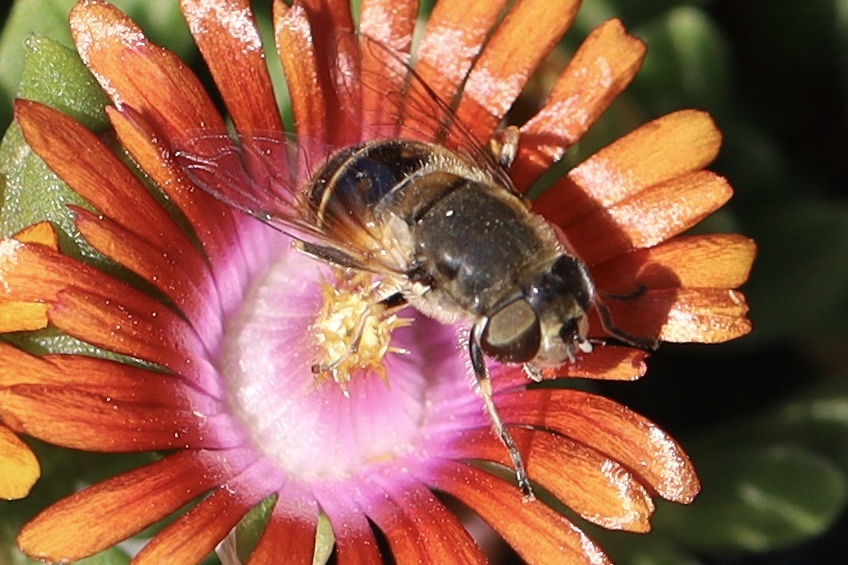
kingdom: Animalia
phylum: Arthropoda
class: Insecta
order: Diptera
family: Syrphidae
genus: Eoseristalis
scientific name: Eoseristalis
